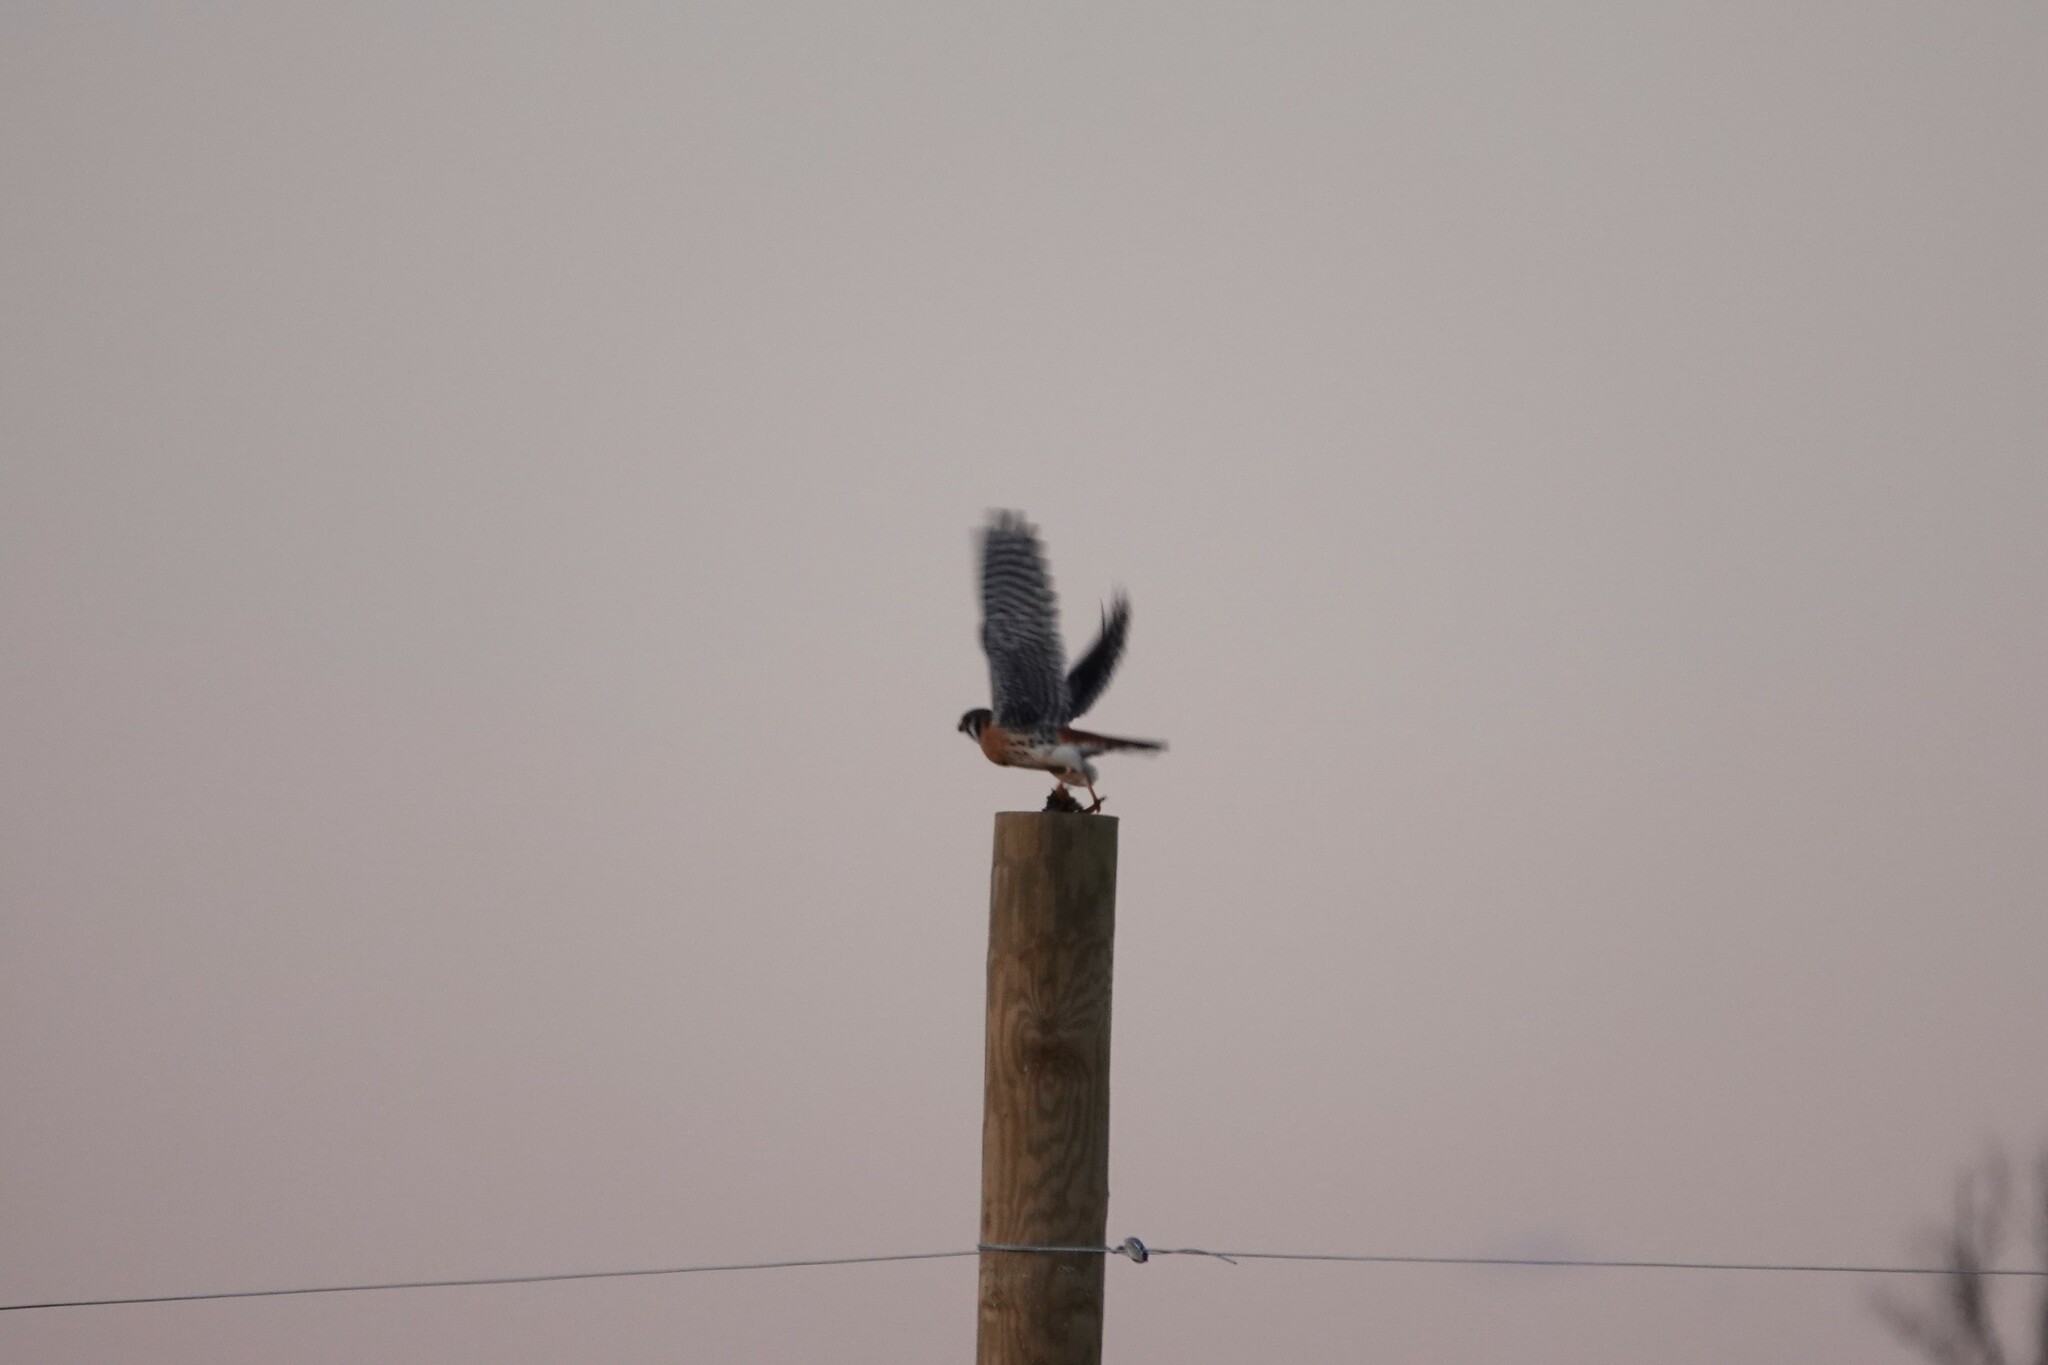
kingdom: Animalia
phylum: Chordata
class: Aves
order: Falconiformes
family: Falconidae
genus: Falco
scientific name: Falco sparverius
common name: American kestrel
